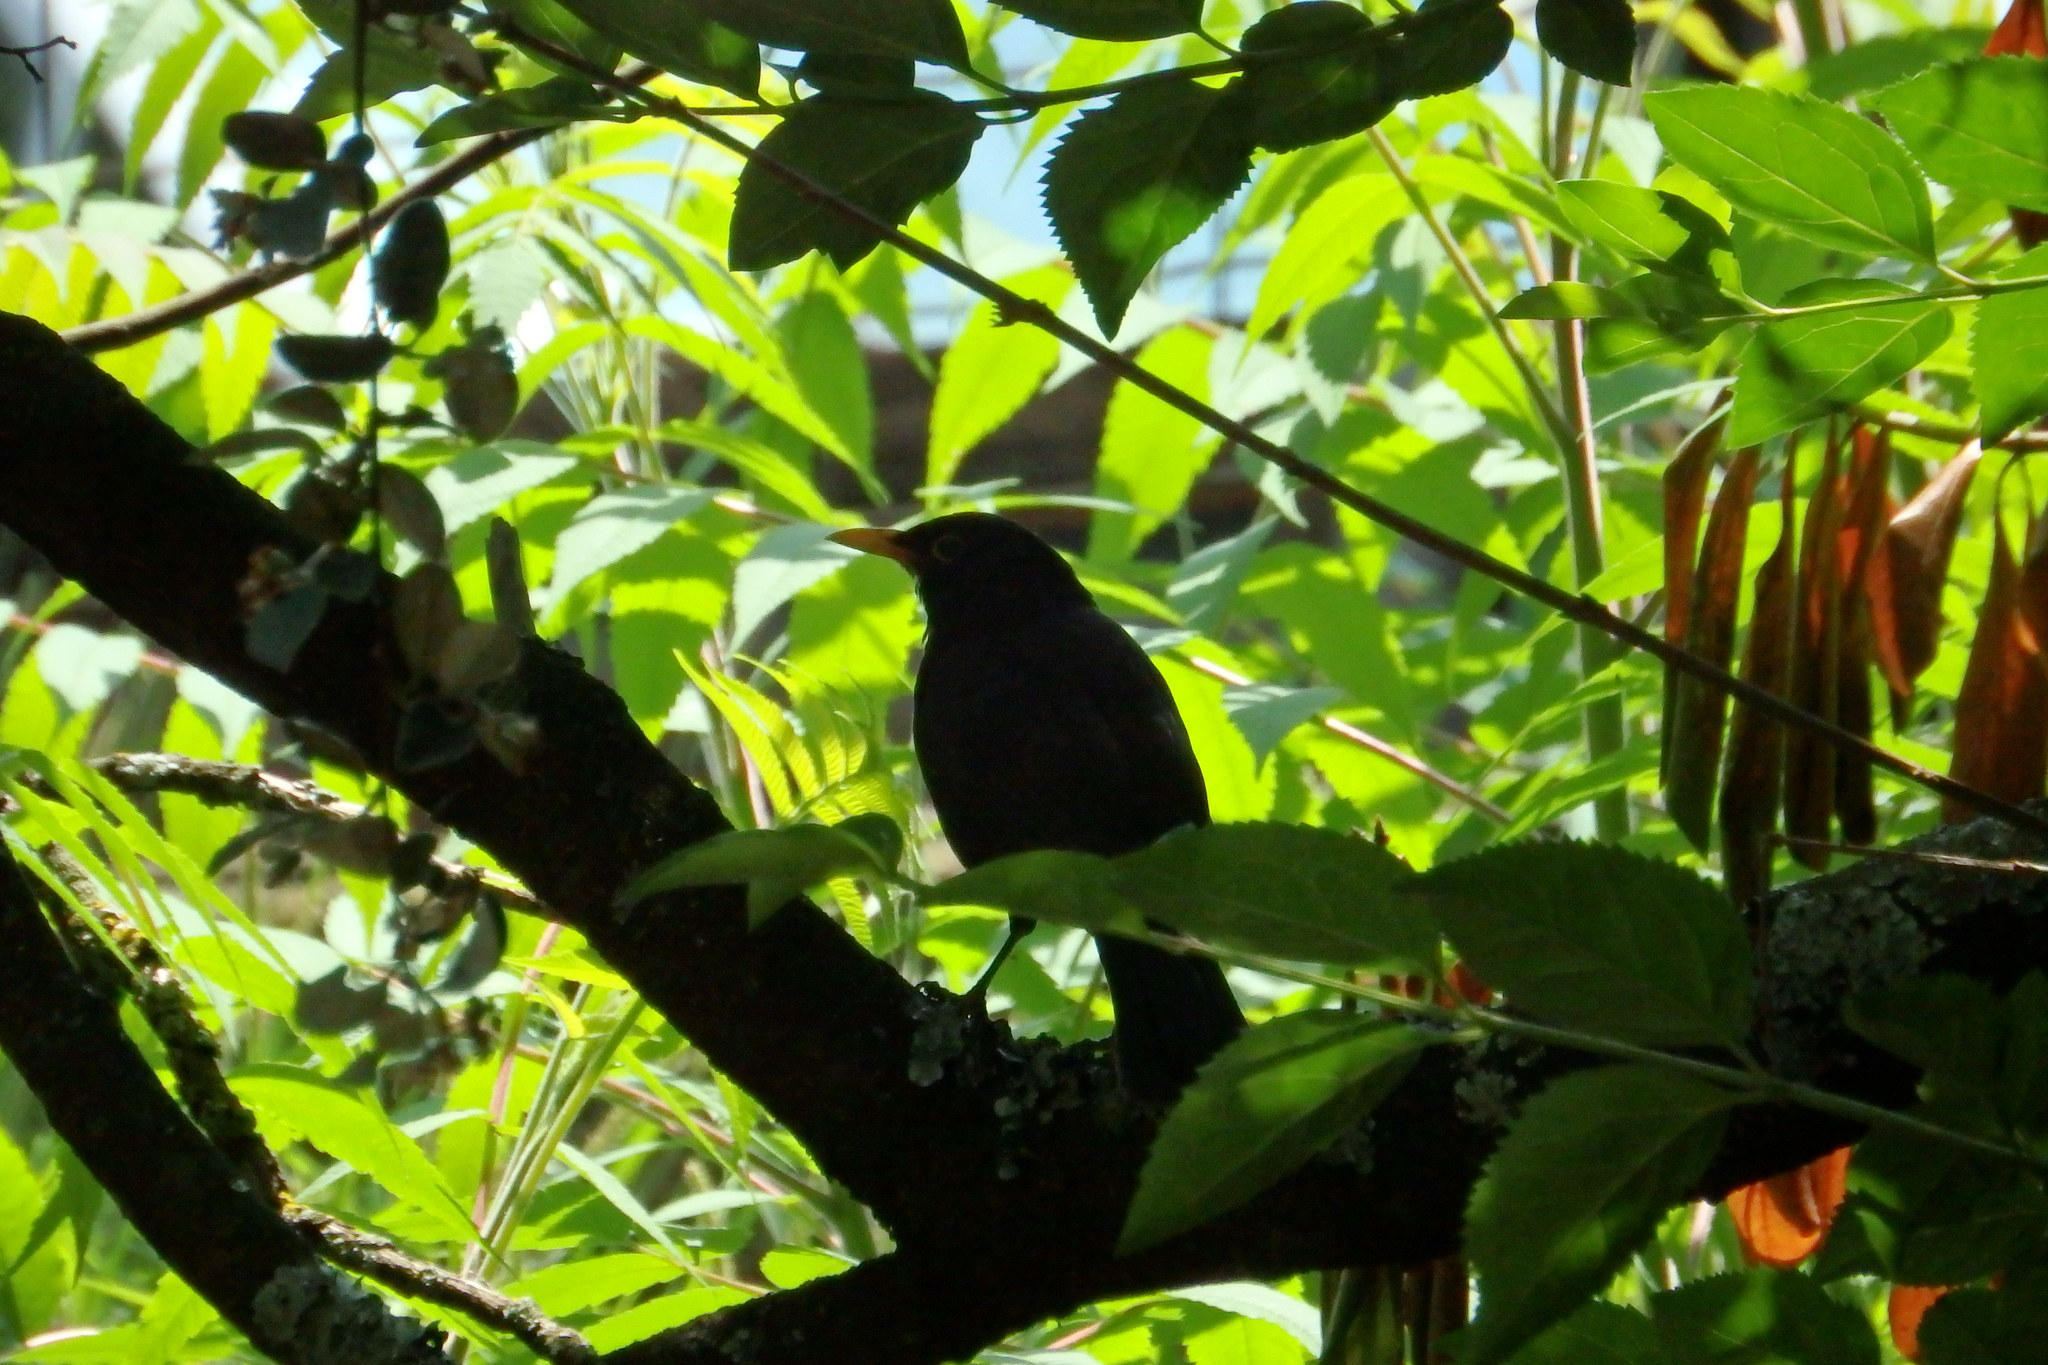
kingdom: Animalia
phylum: Chordata
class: Aves
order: Passeriformes
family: Turdidae
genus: Turdus
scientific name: Turdus merula
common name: Common blackbird
